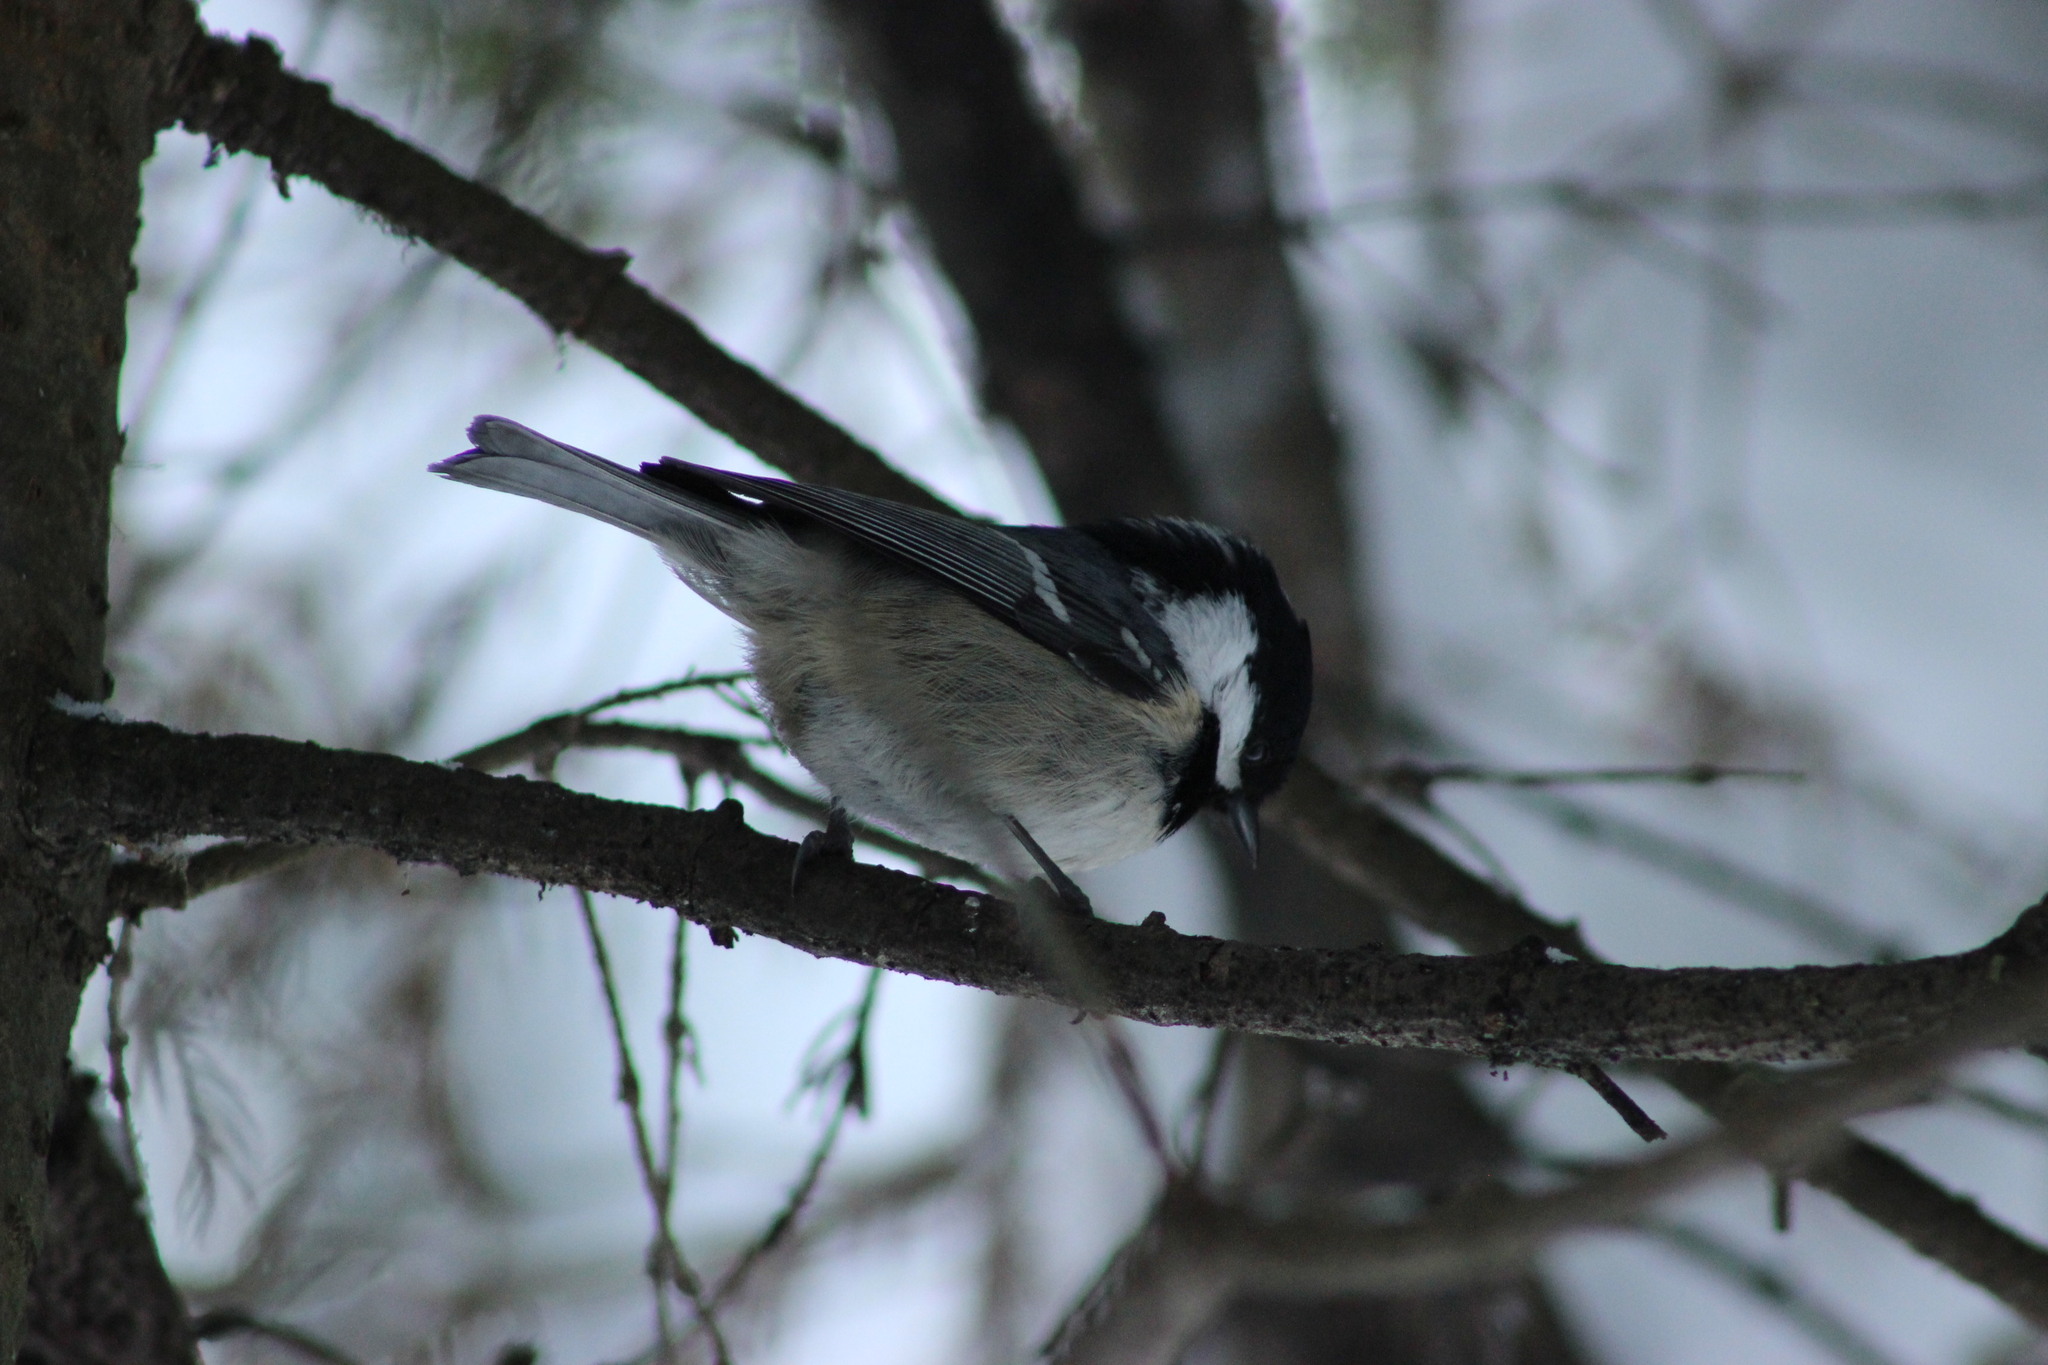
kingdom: Animalia
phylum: Chordata
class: Aves
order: Passeriformes
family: Paridae
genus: Periparus
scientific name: Periparus ater
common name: Coal tit
